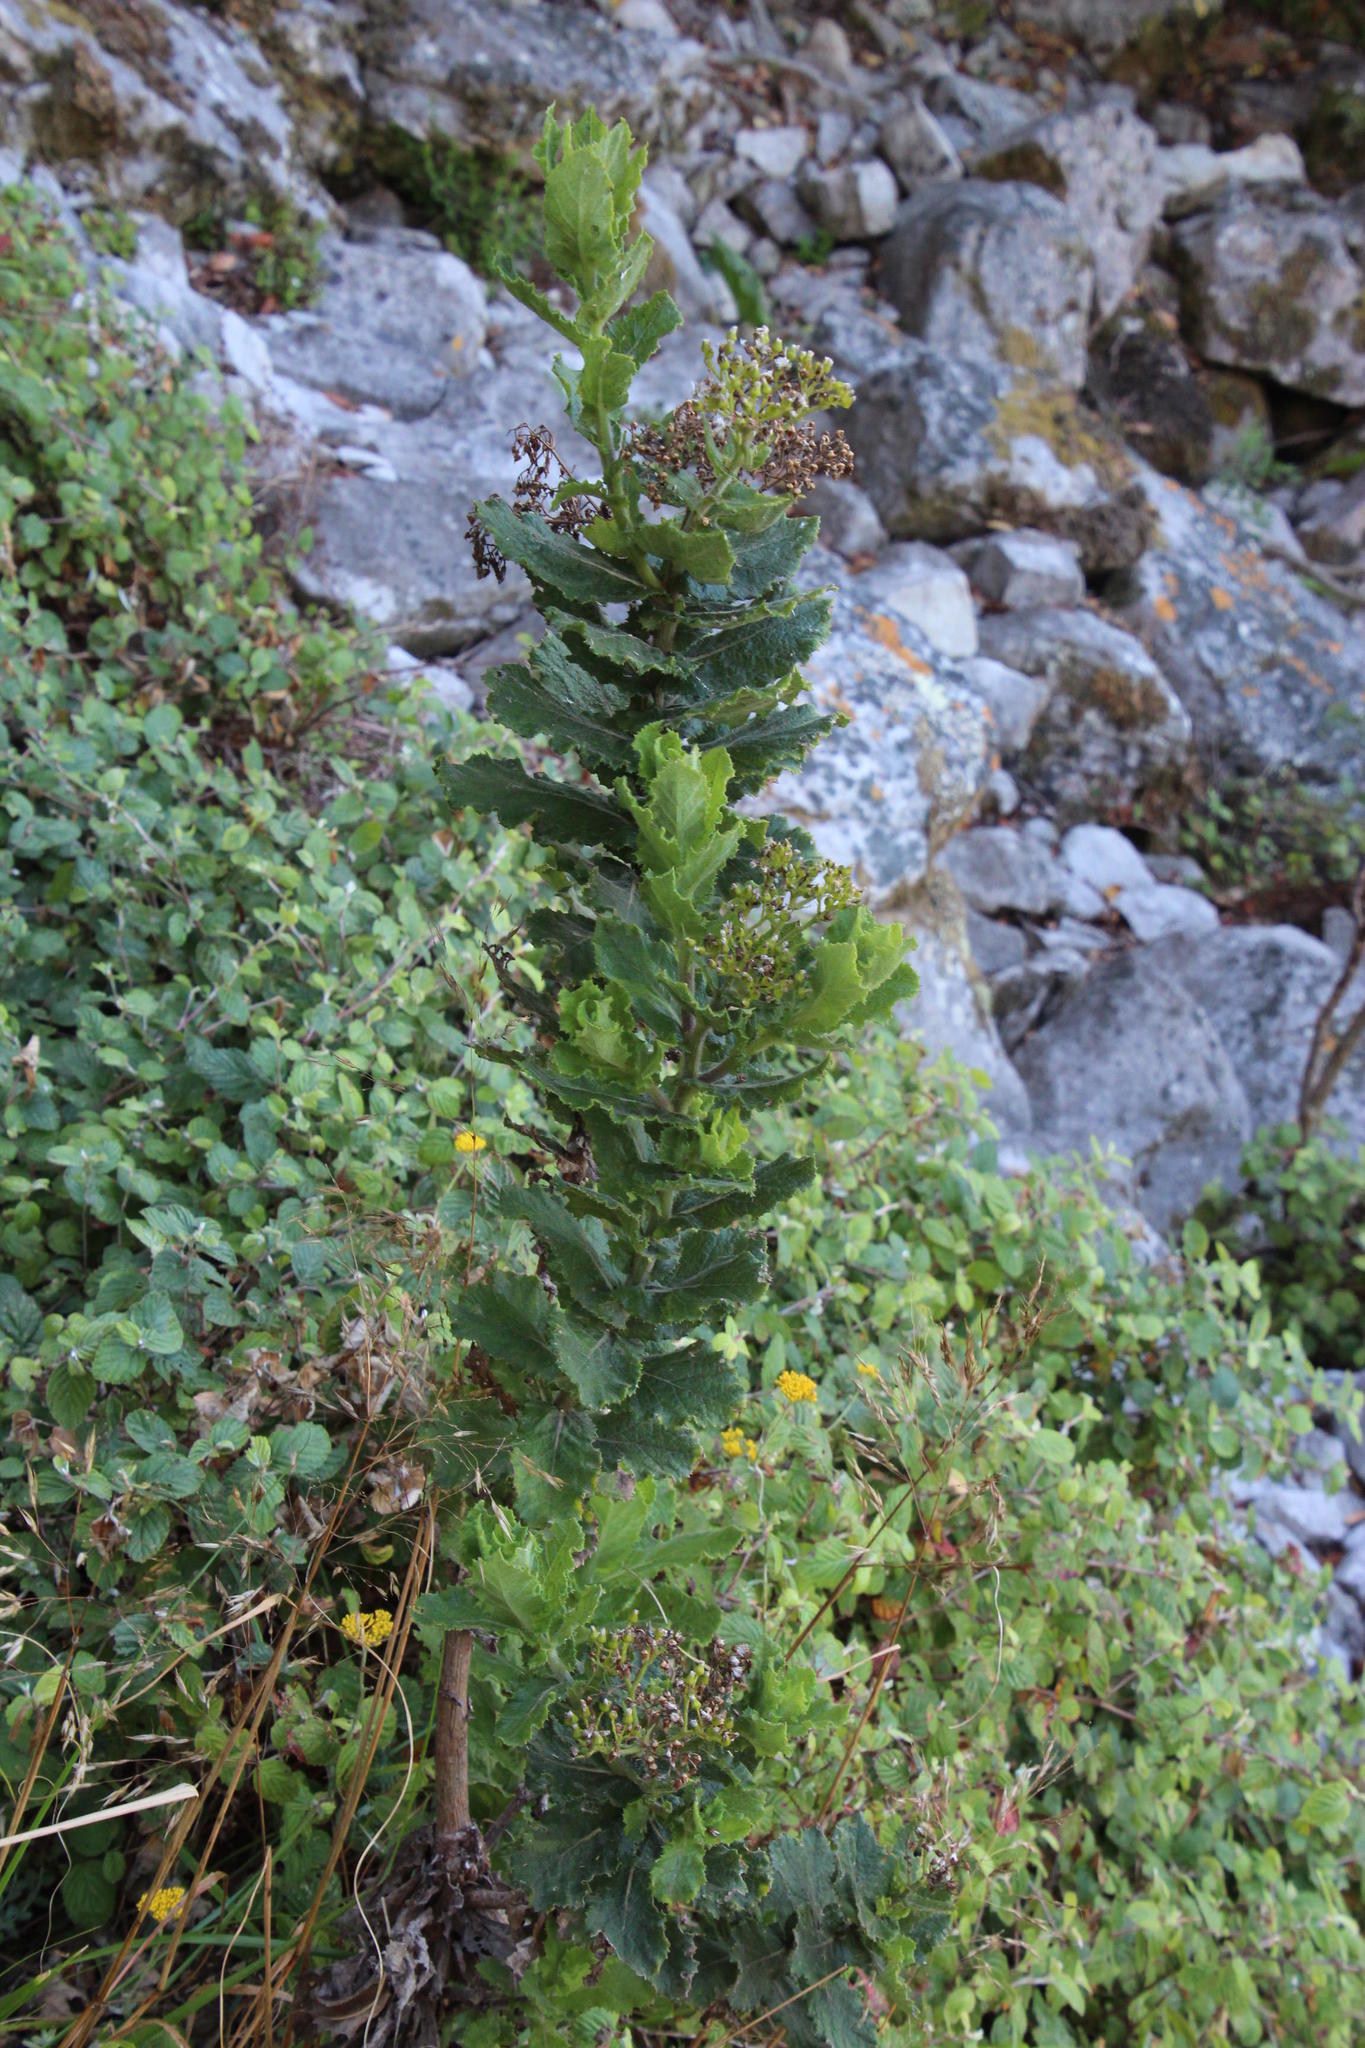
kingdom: Plantae
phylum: Tracheophyta
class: Magnoliopsida
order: Asterales
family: Asteraceae
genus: Senecio
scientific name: Senecio rigidus
